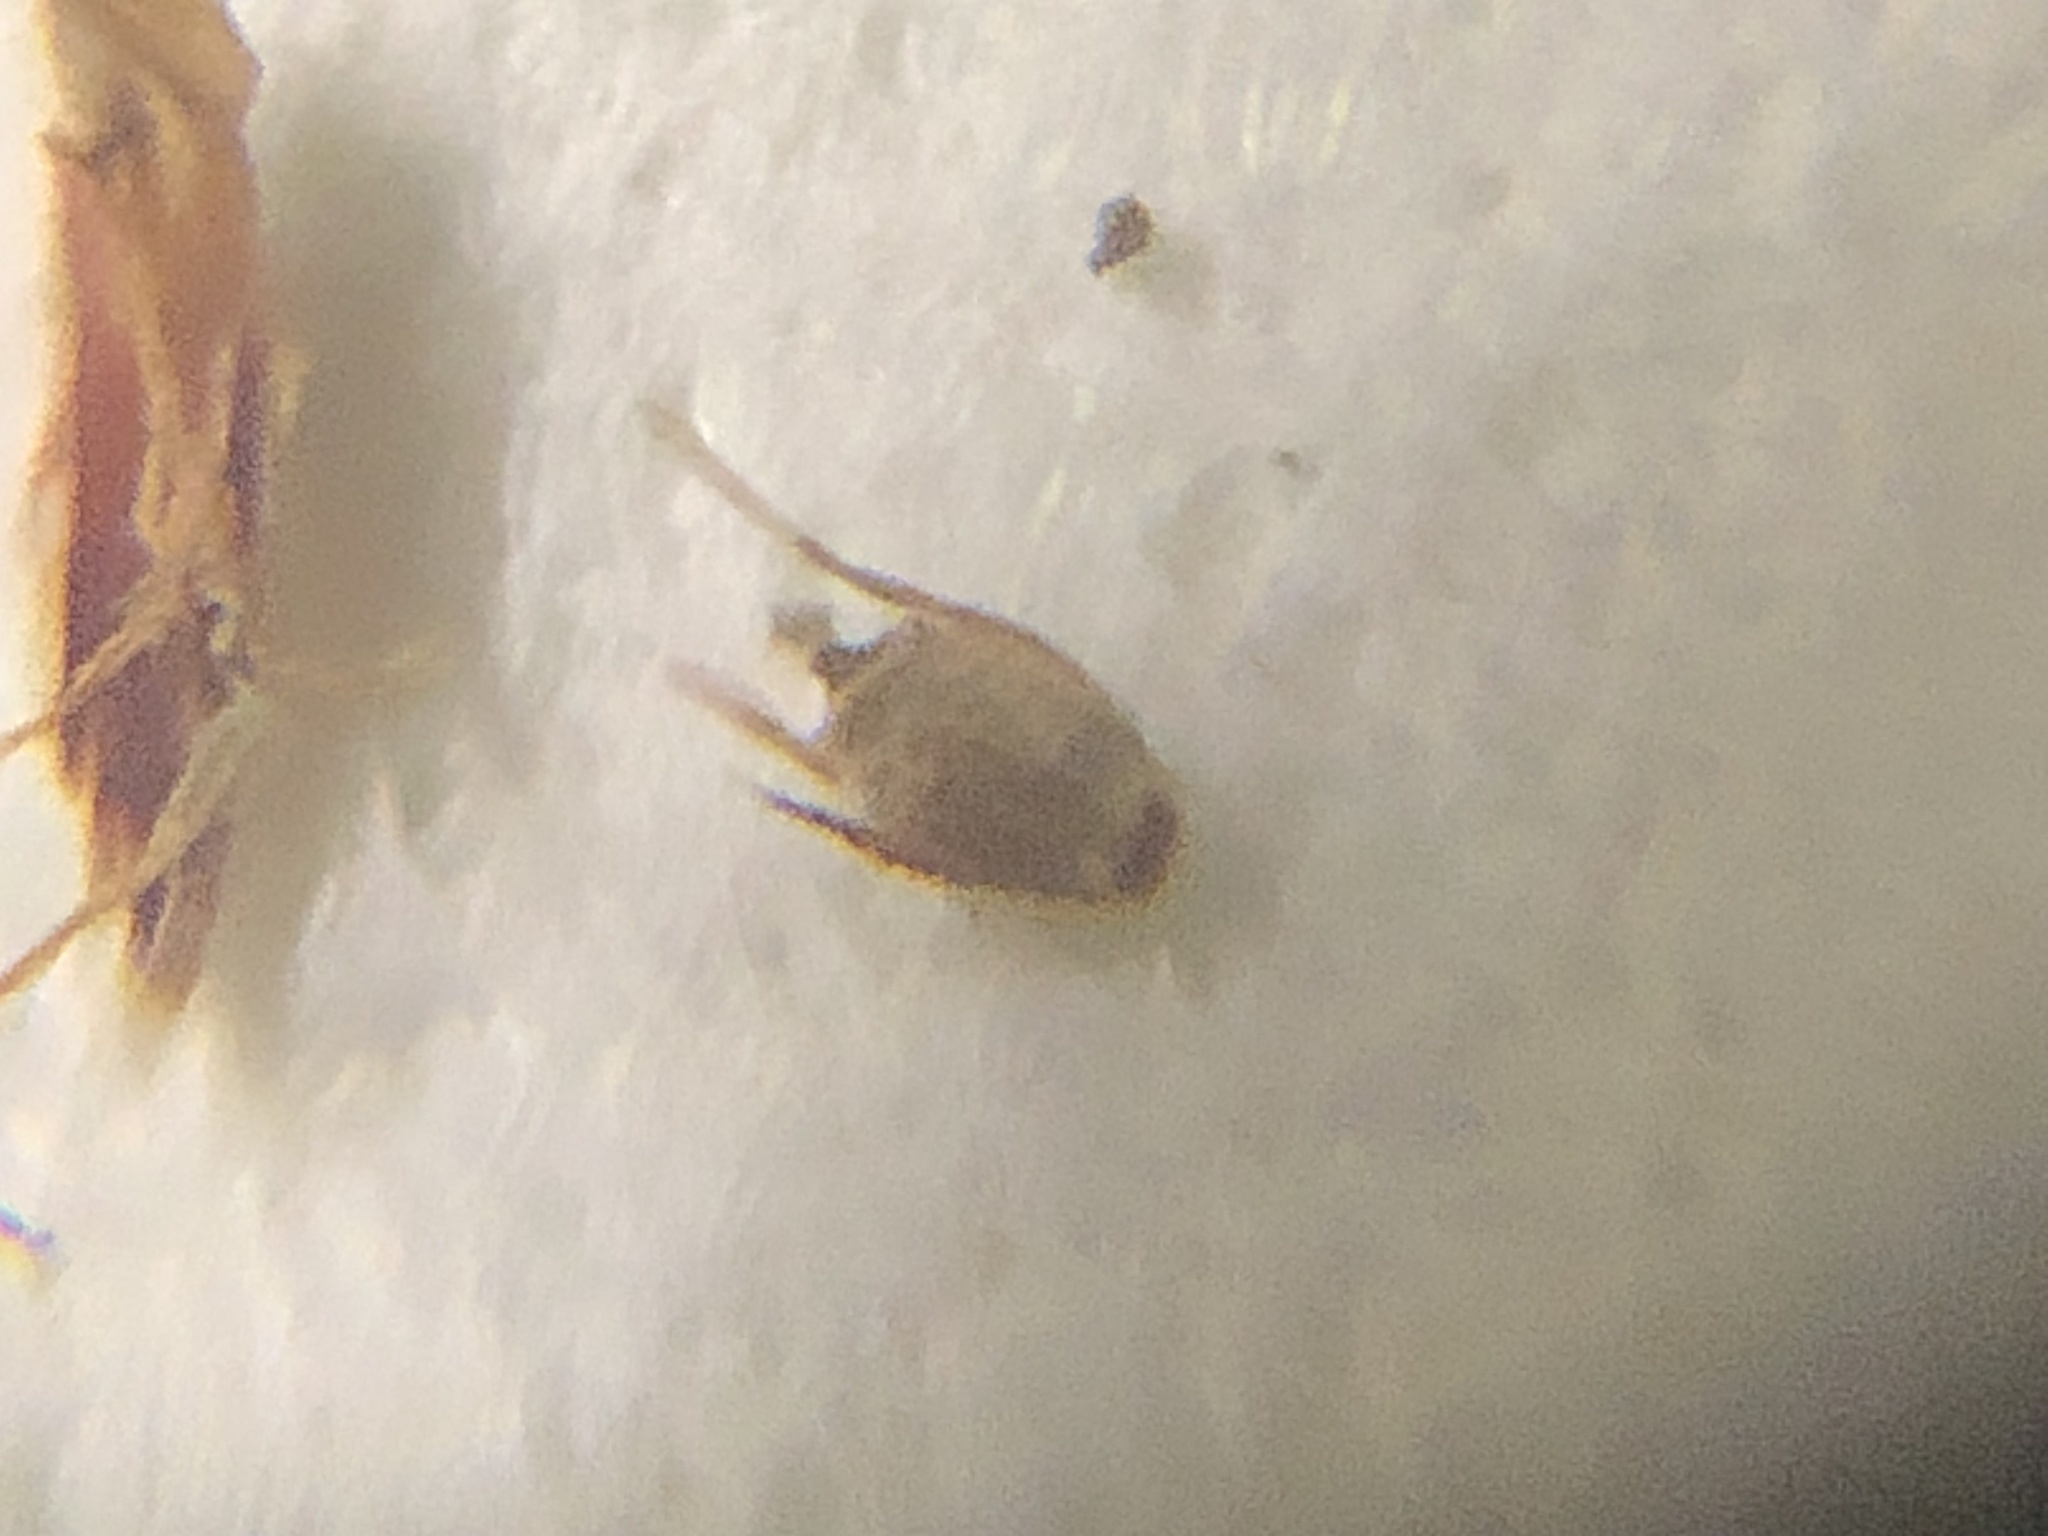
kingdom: Plantae
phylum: Tracheophyta
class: Liliopsida
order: Poales
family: Cyperaceae
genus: Eleocharis
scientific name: Eleocharis erythropoda
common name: Bald spikerush
